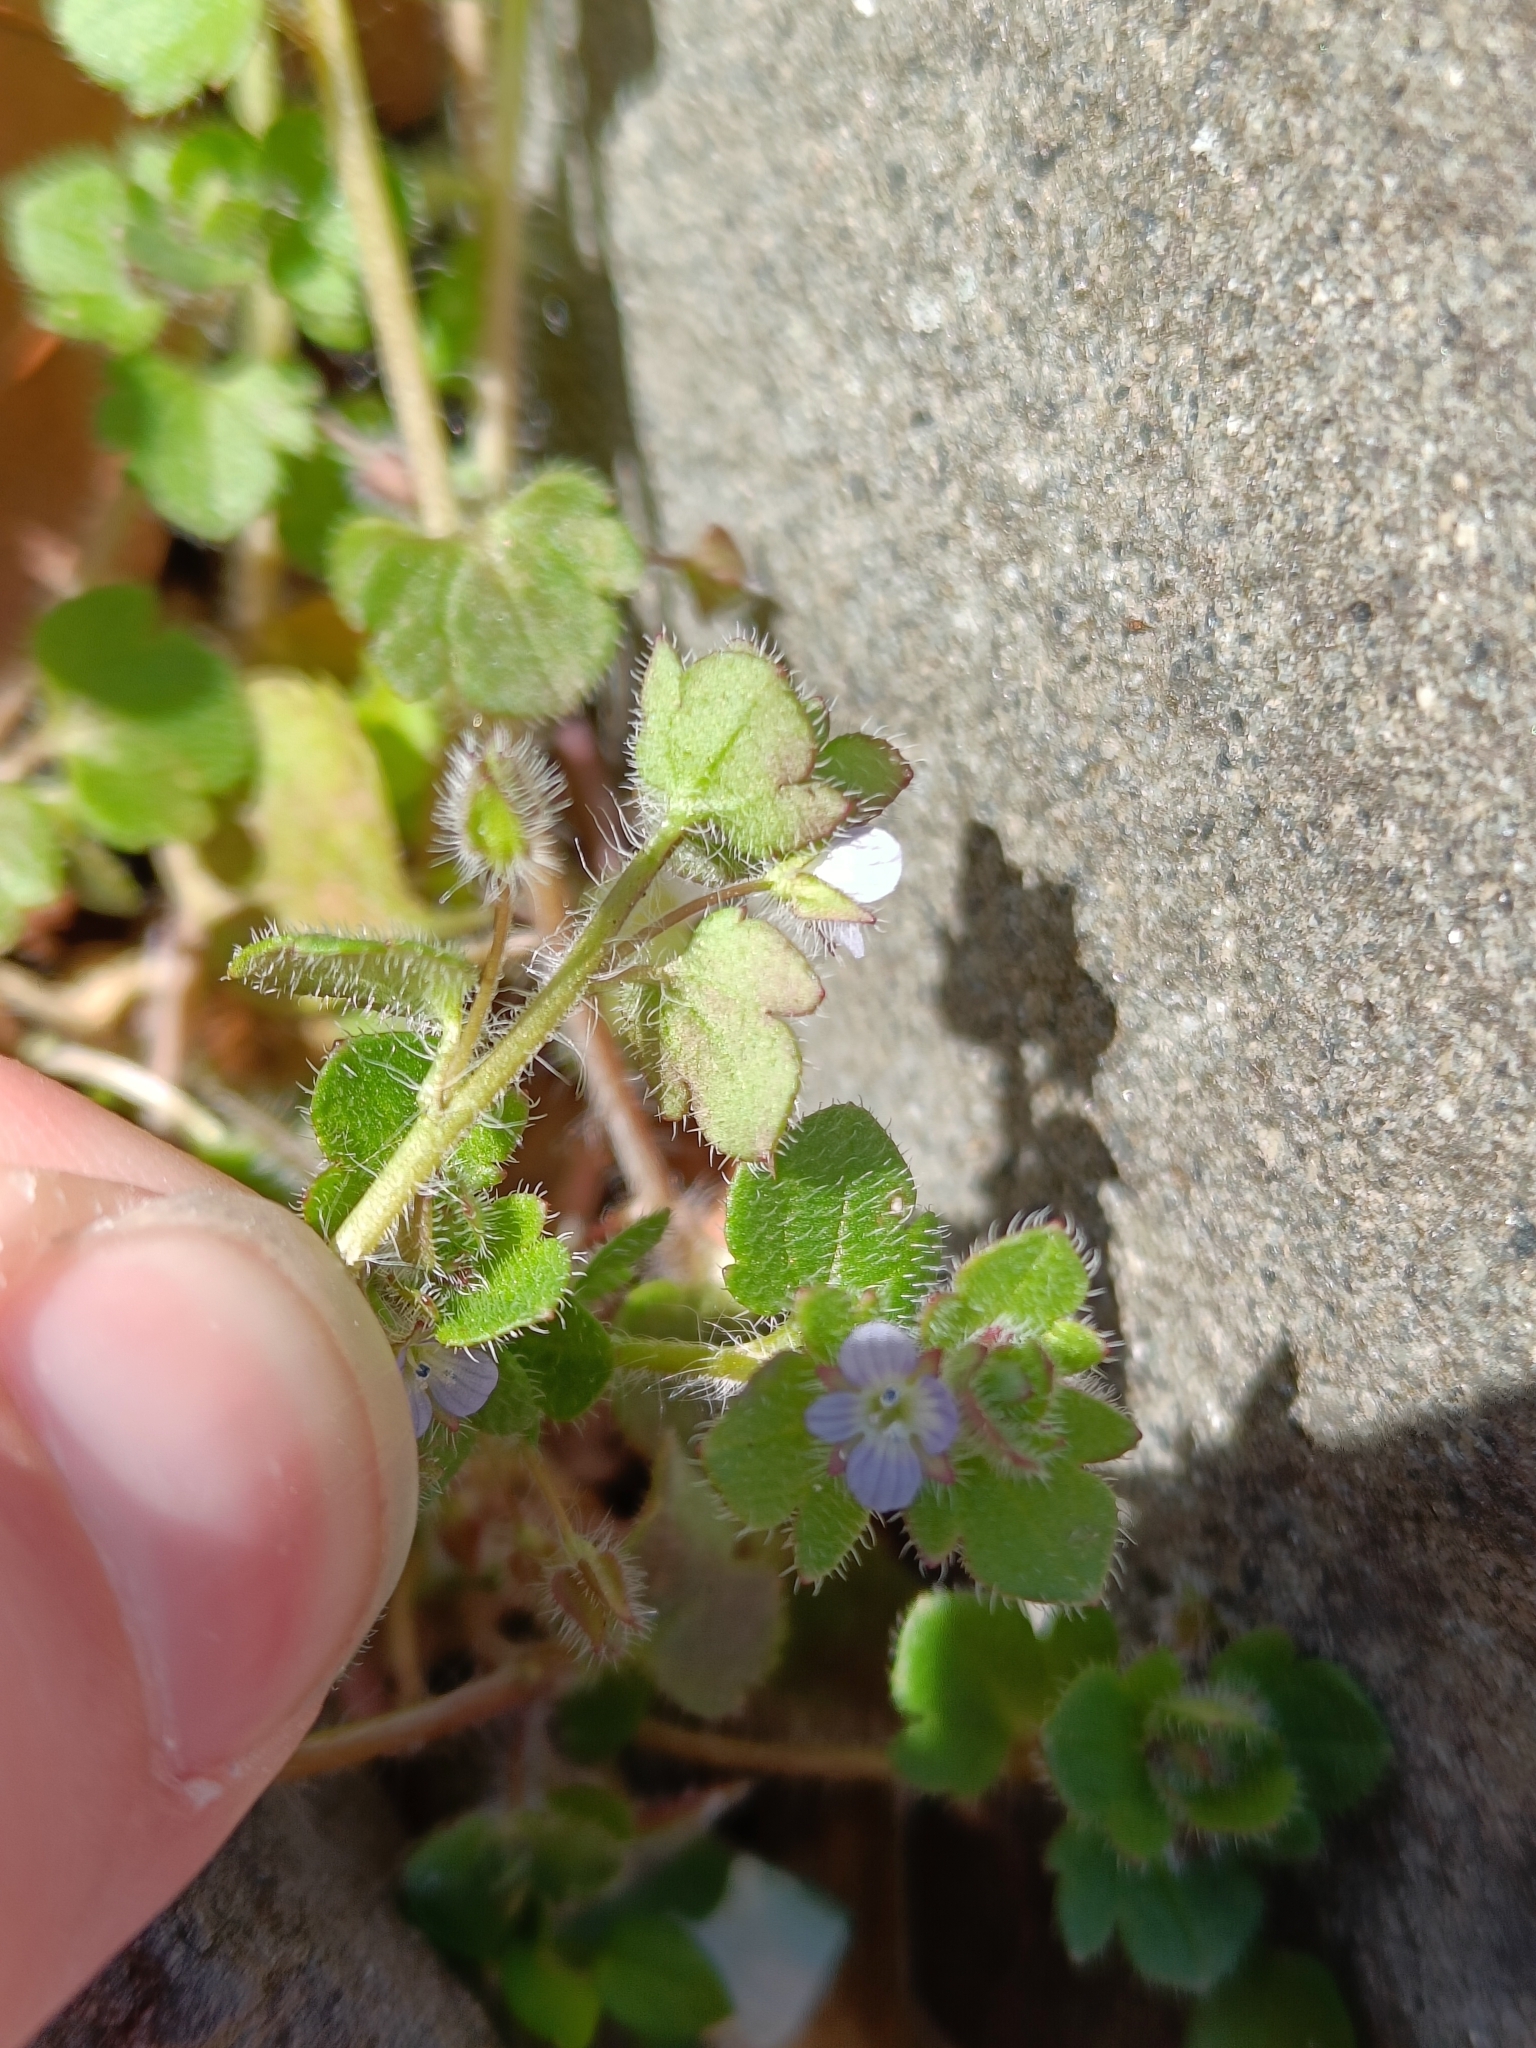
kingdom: Plantae
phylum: Tracheophyta
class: Magnoliopsida
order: Lamiales
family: Plantaginaceae
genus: Veronica
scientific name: Veronica hederifolia
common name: Ivy-leaved speedwell
